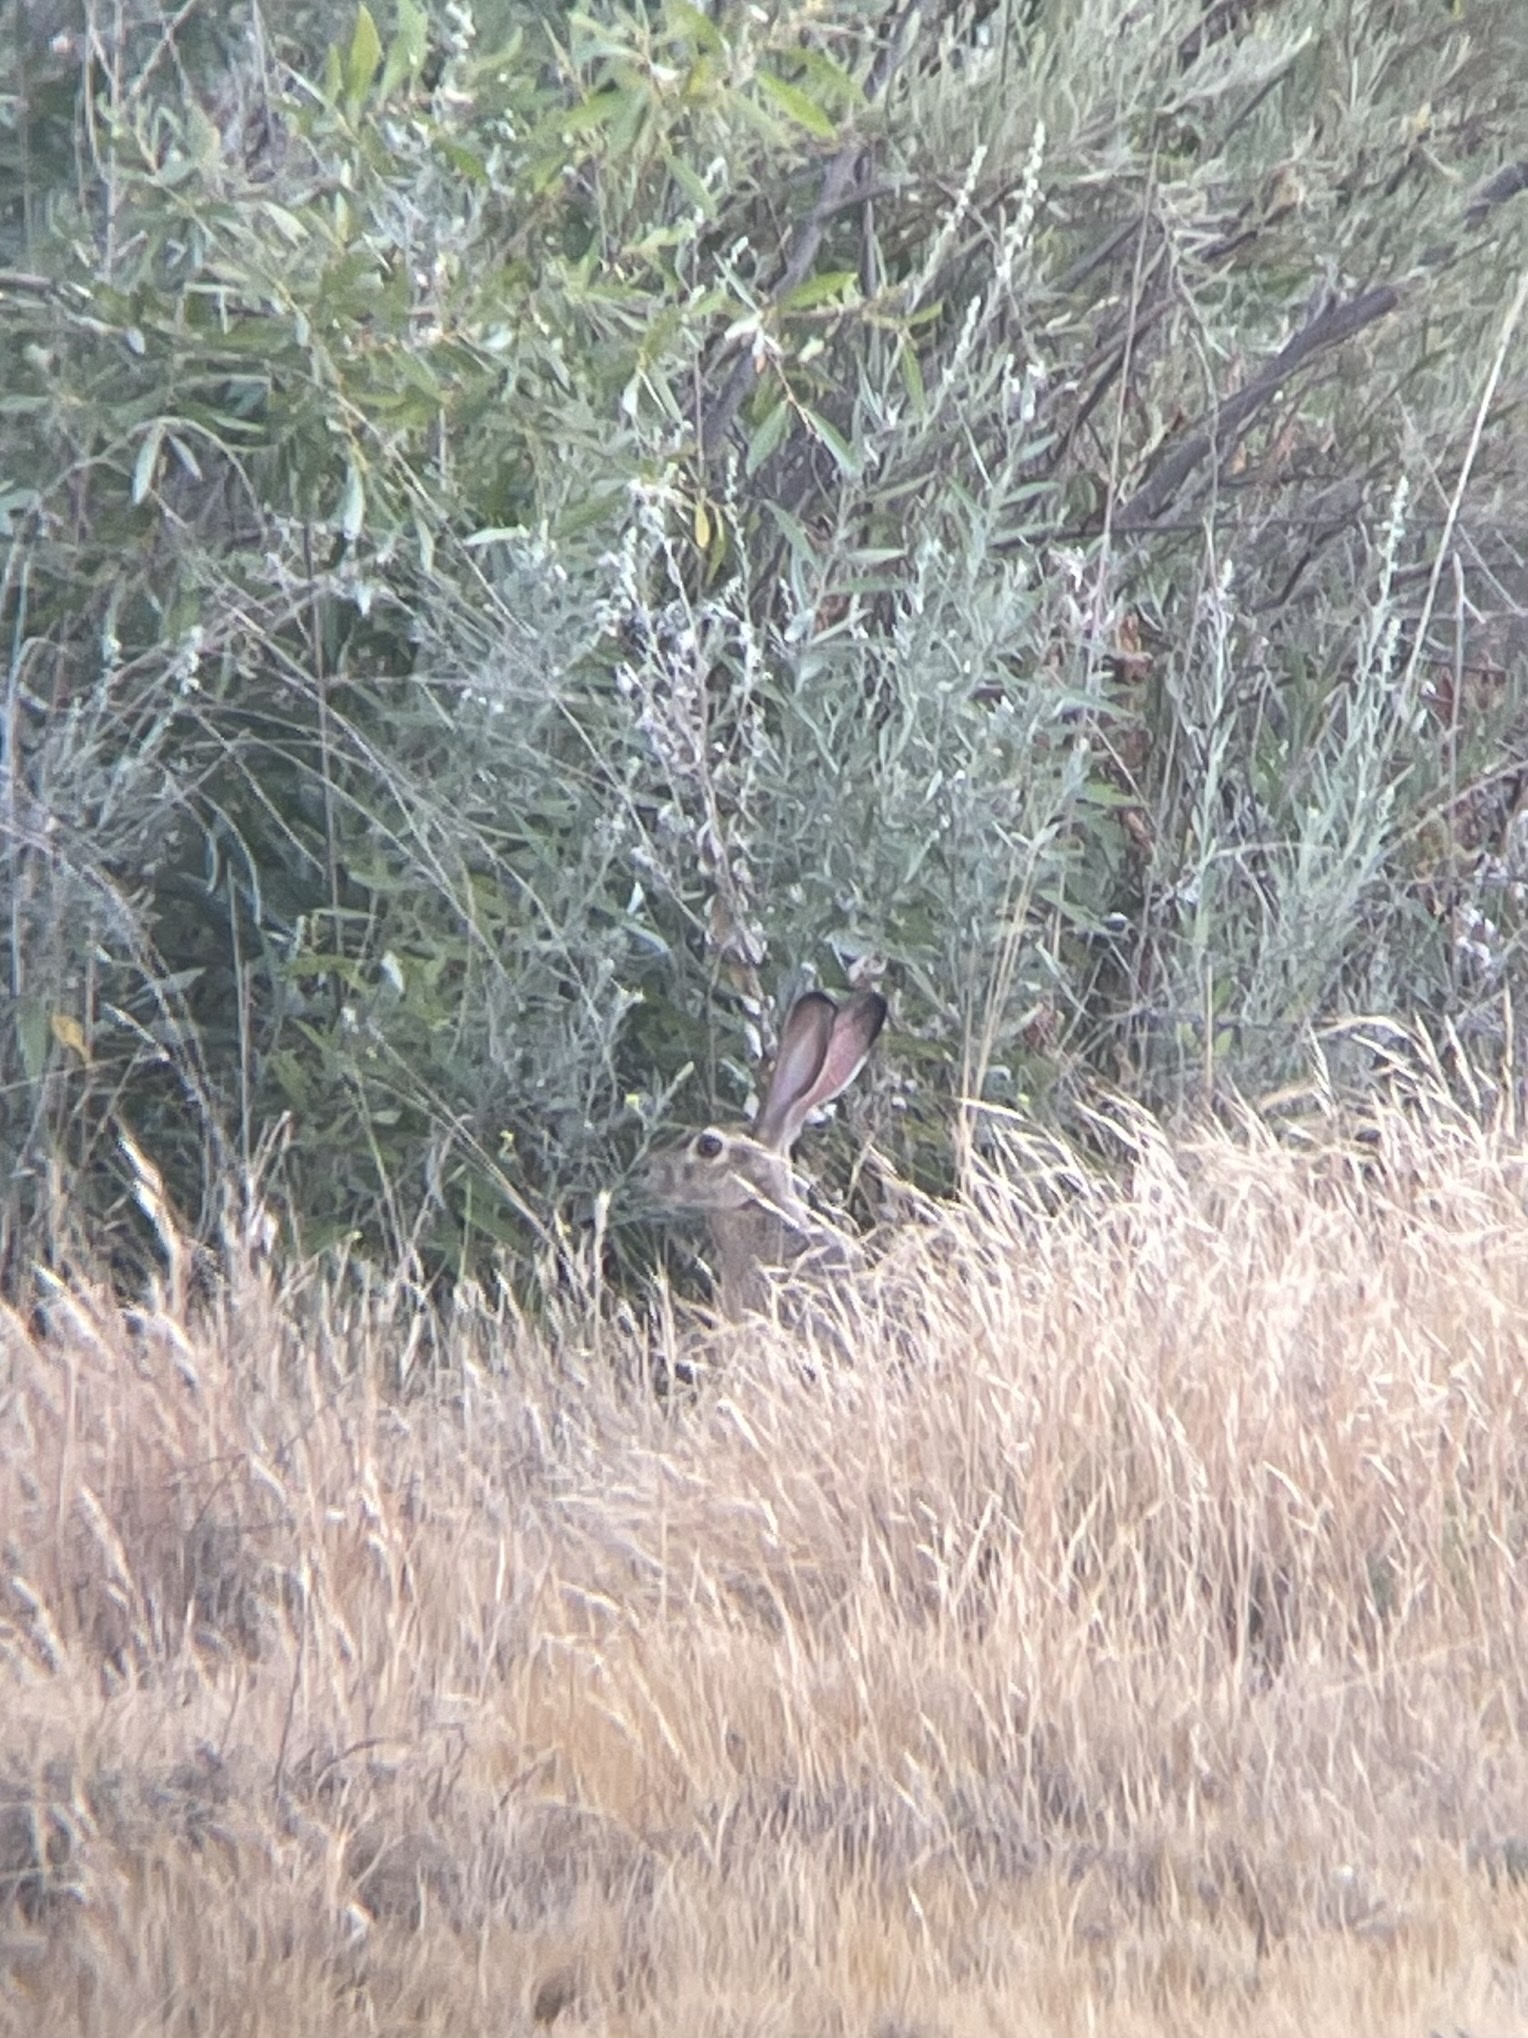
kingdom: Animalia
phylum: Chordata
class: Mammalia
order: Lagomorpha
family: Leporidae
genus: Lepus
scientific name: Lepus californicus
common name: Black-tailed jackrabbit
